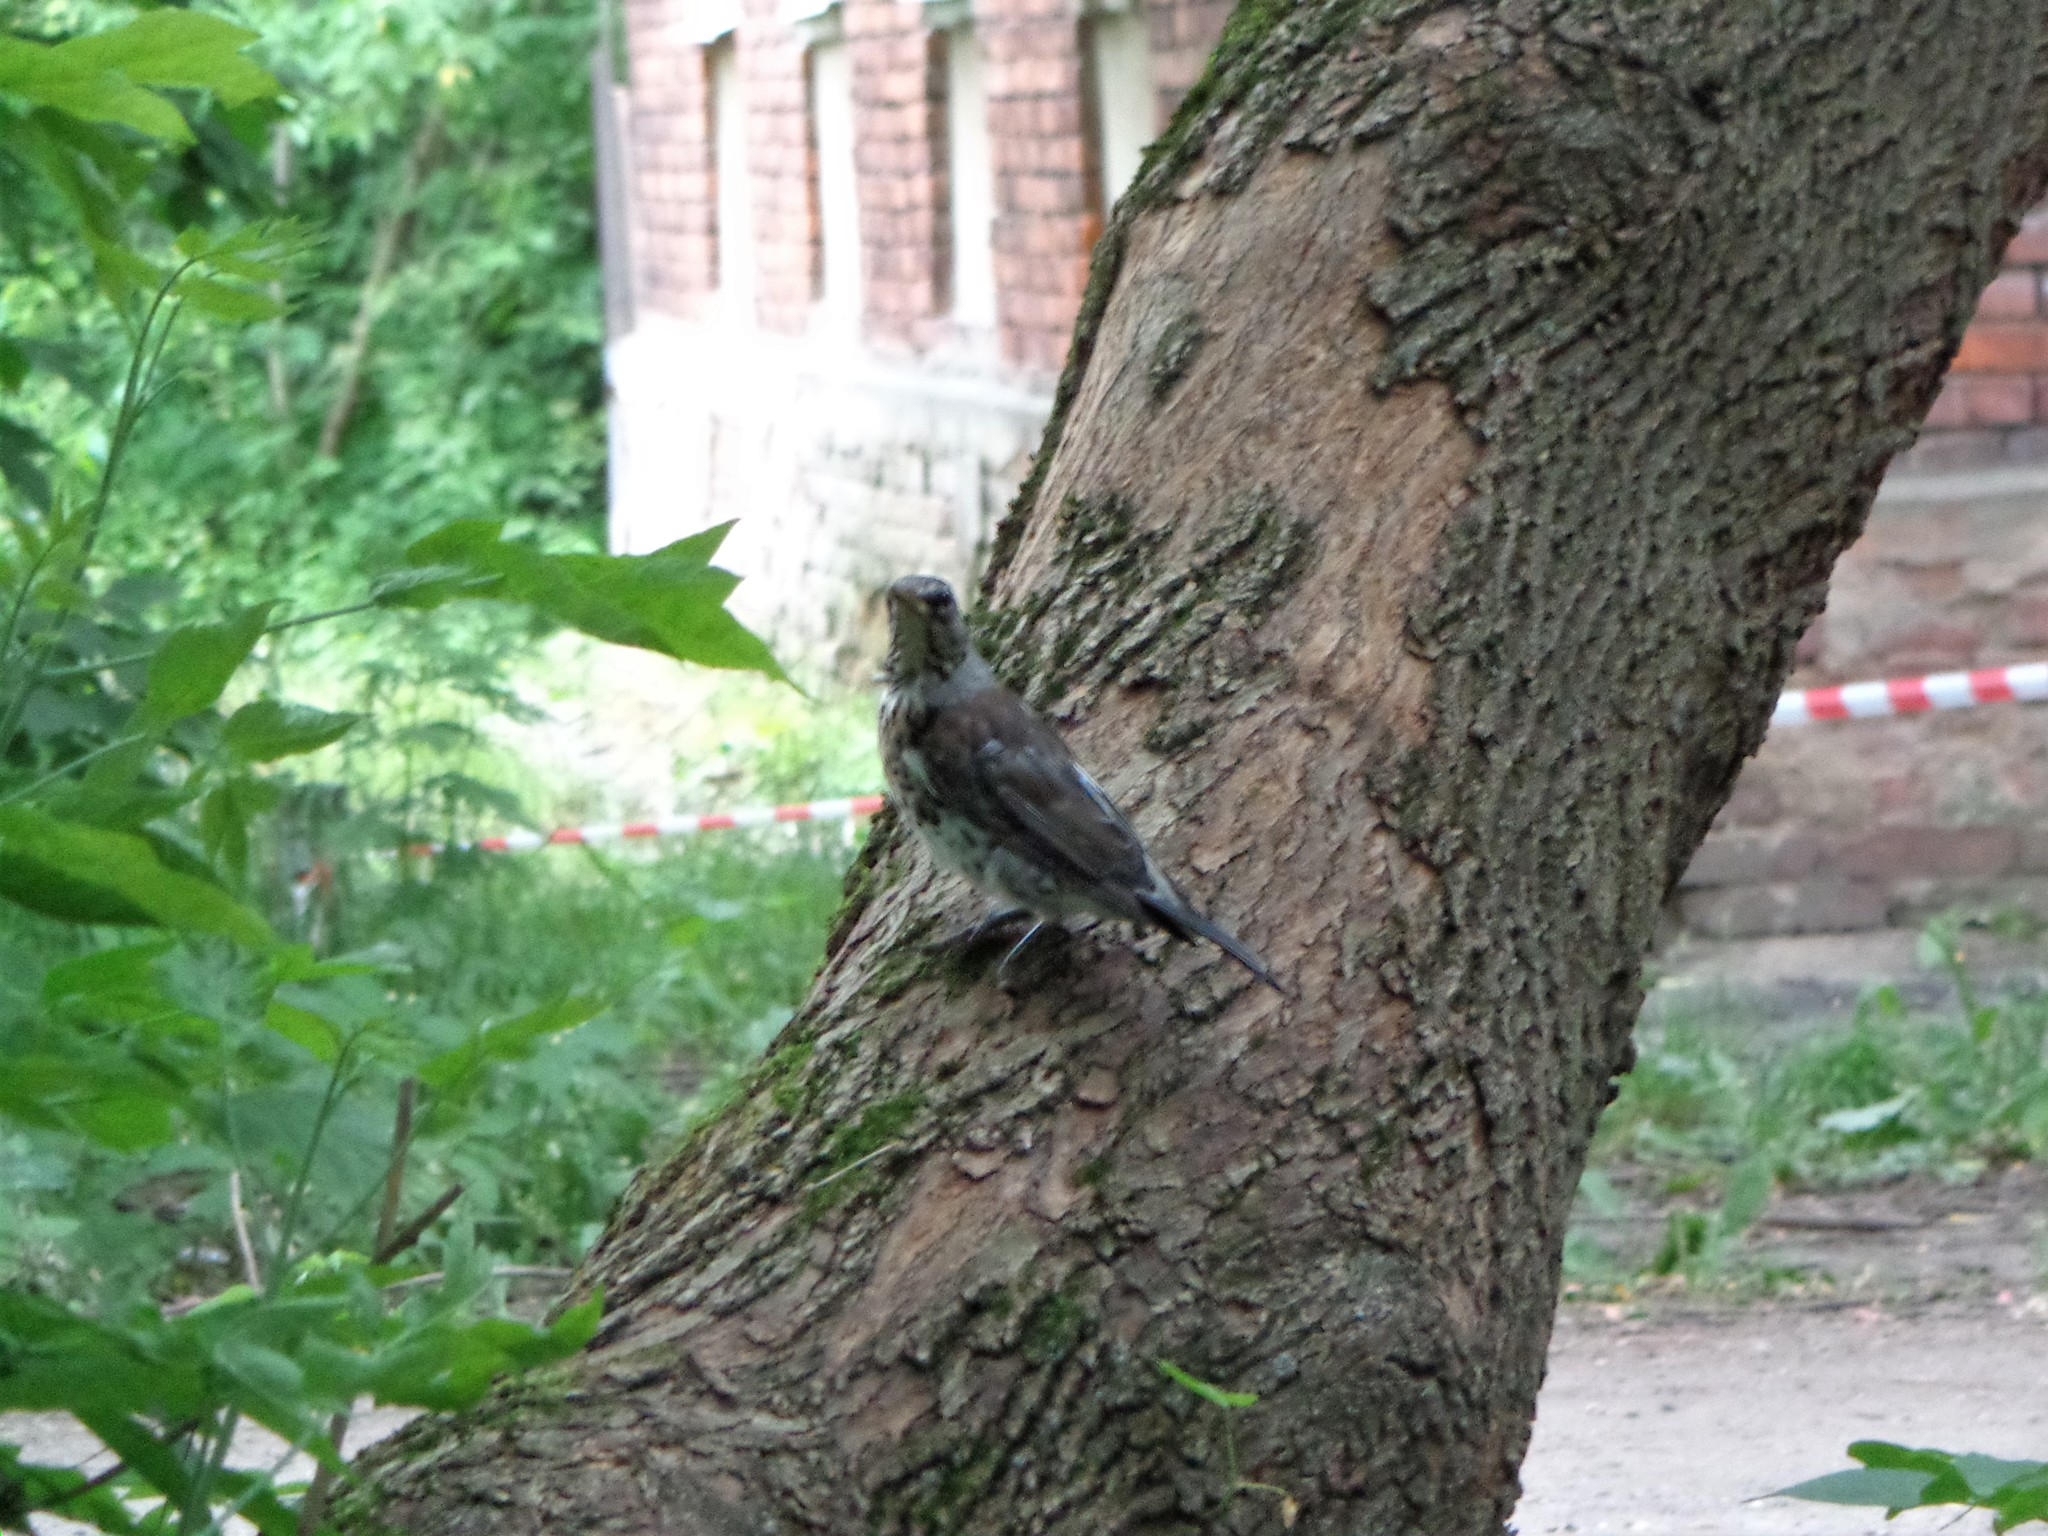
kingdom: Animalia
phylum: Chordata
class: Aves
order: Passeriformes
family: Turdidae
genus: Turdus
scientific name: Turdus pilaris
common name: Fieldfare
